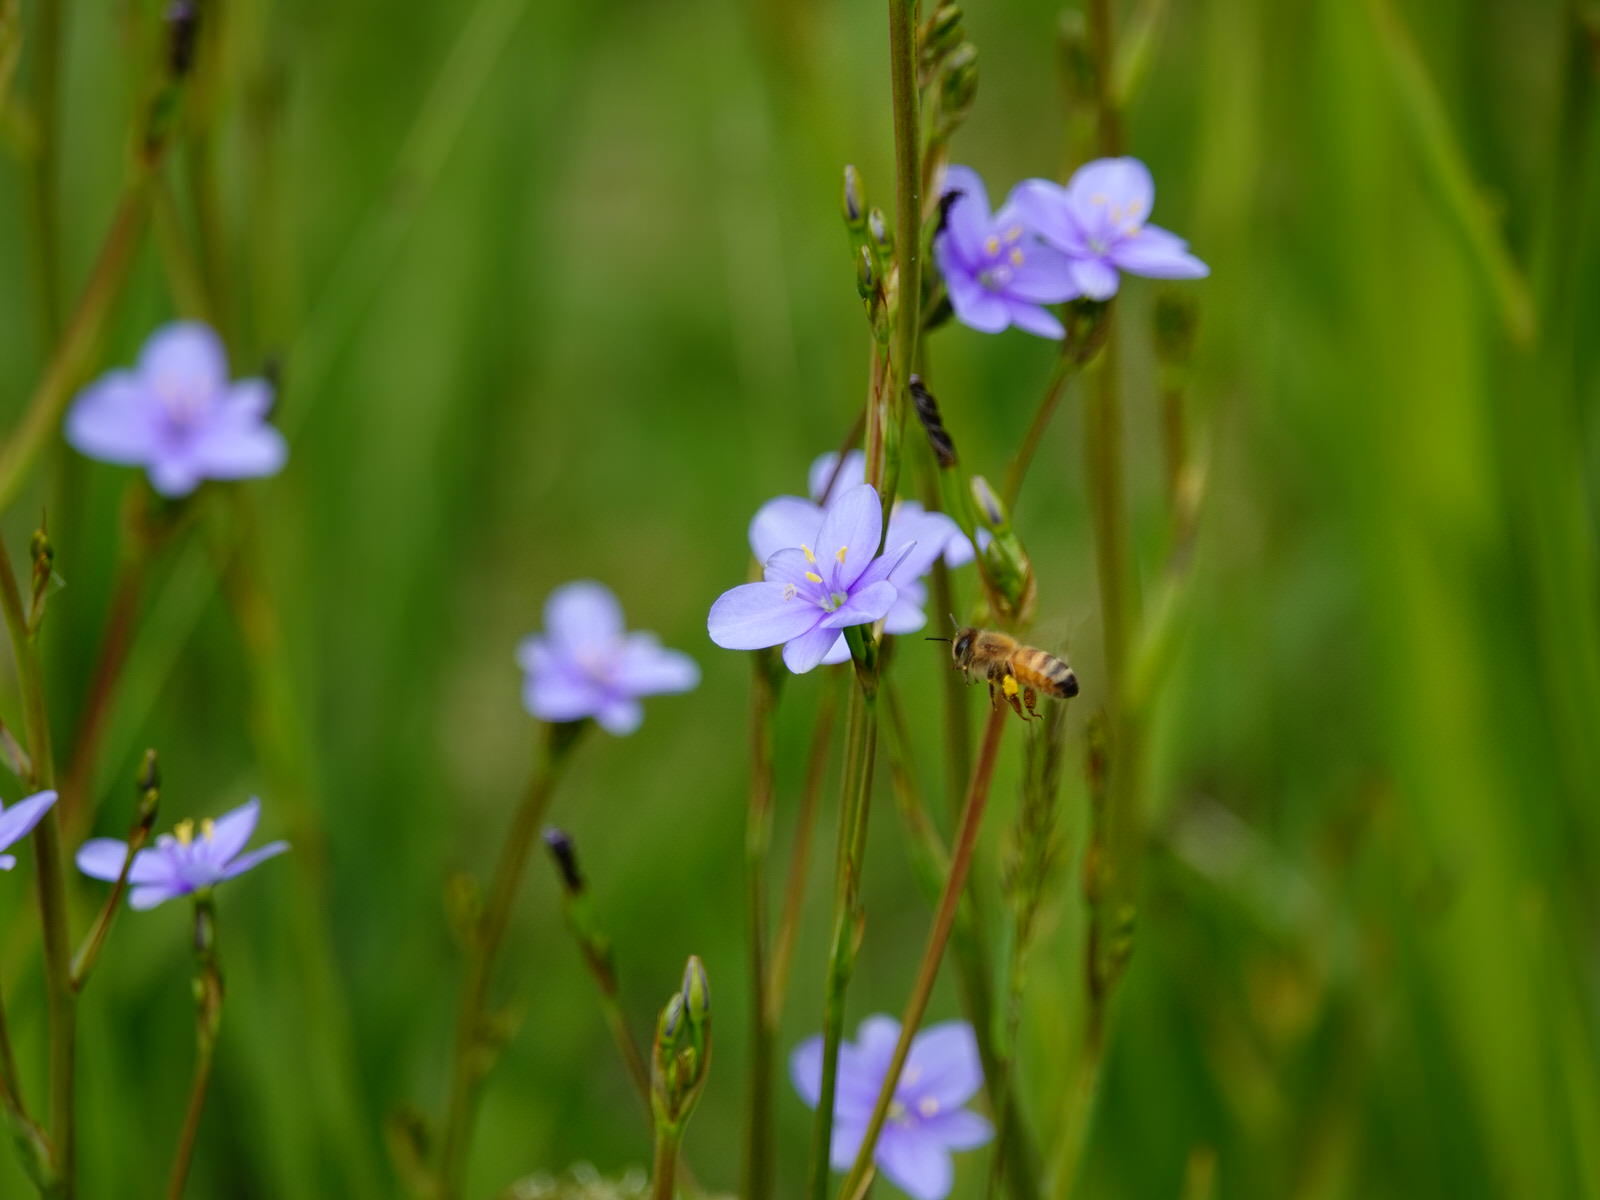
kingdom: Plantae
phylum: Tracheophyta
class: Liliopsida
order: Asparagales
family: Iridaceae
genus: Aristea
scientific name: Aristea ecklonii
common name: Blue corn-lily
